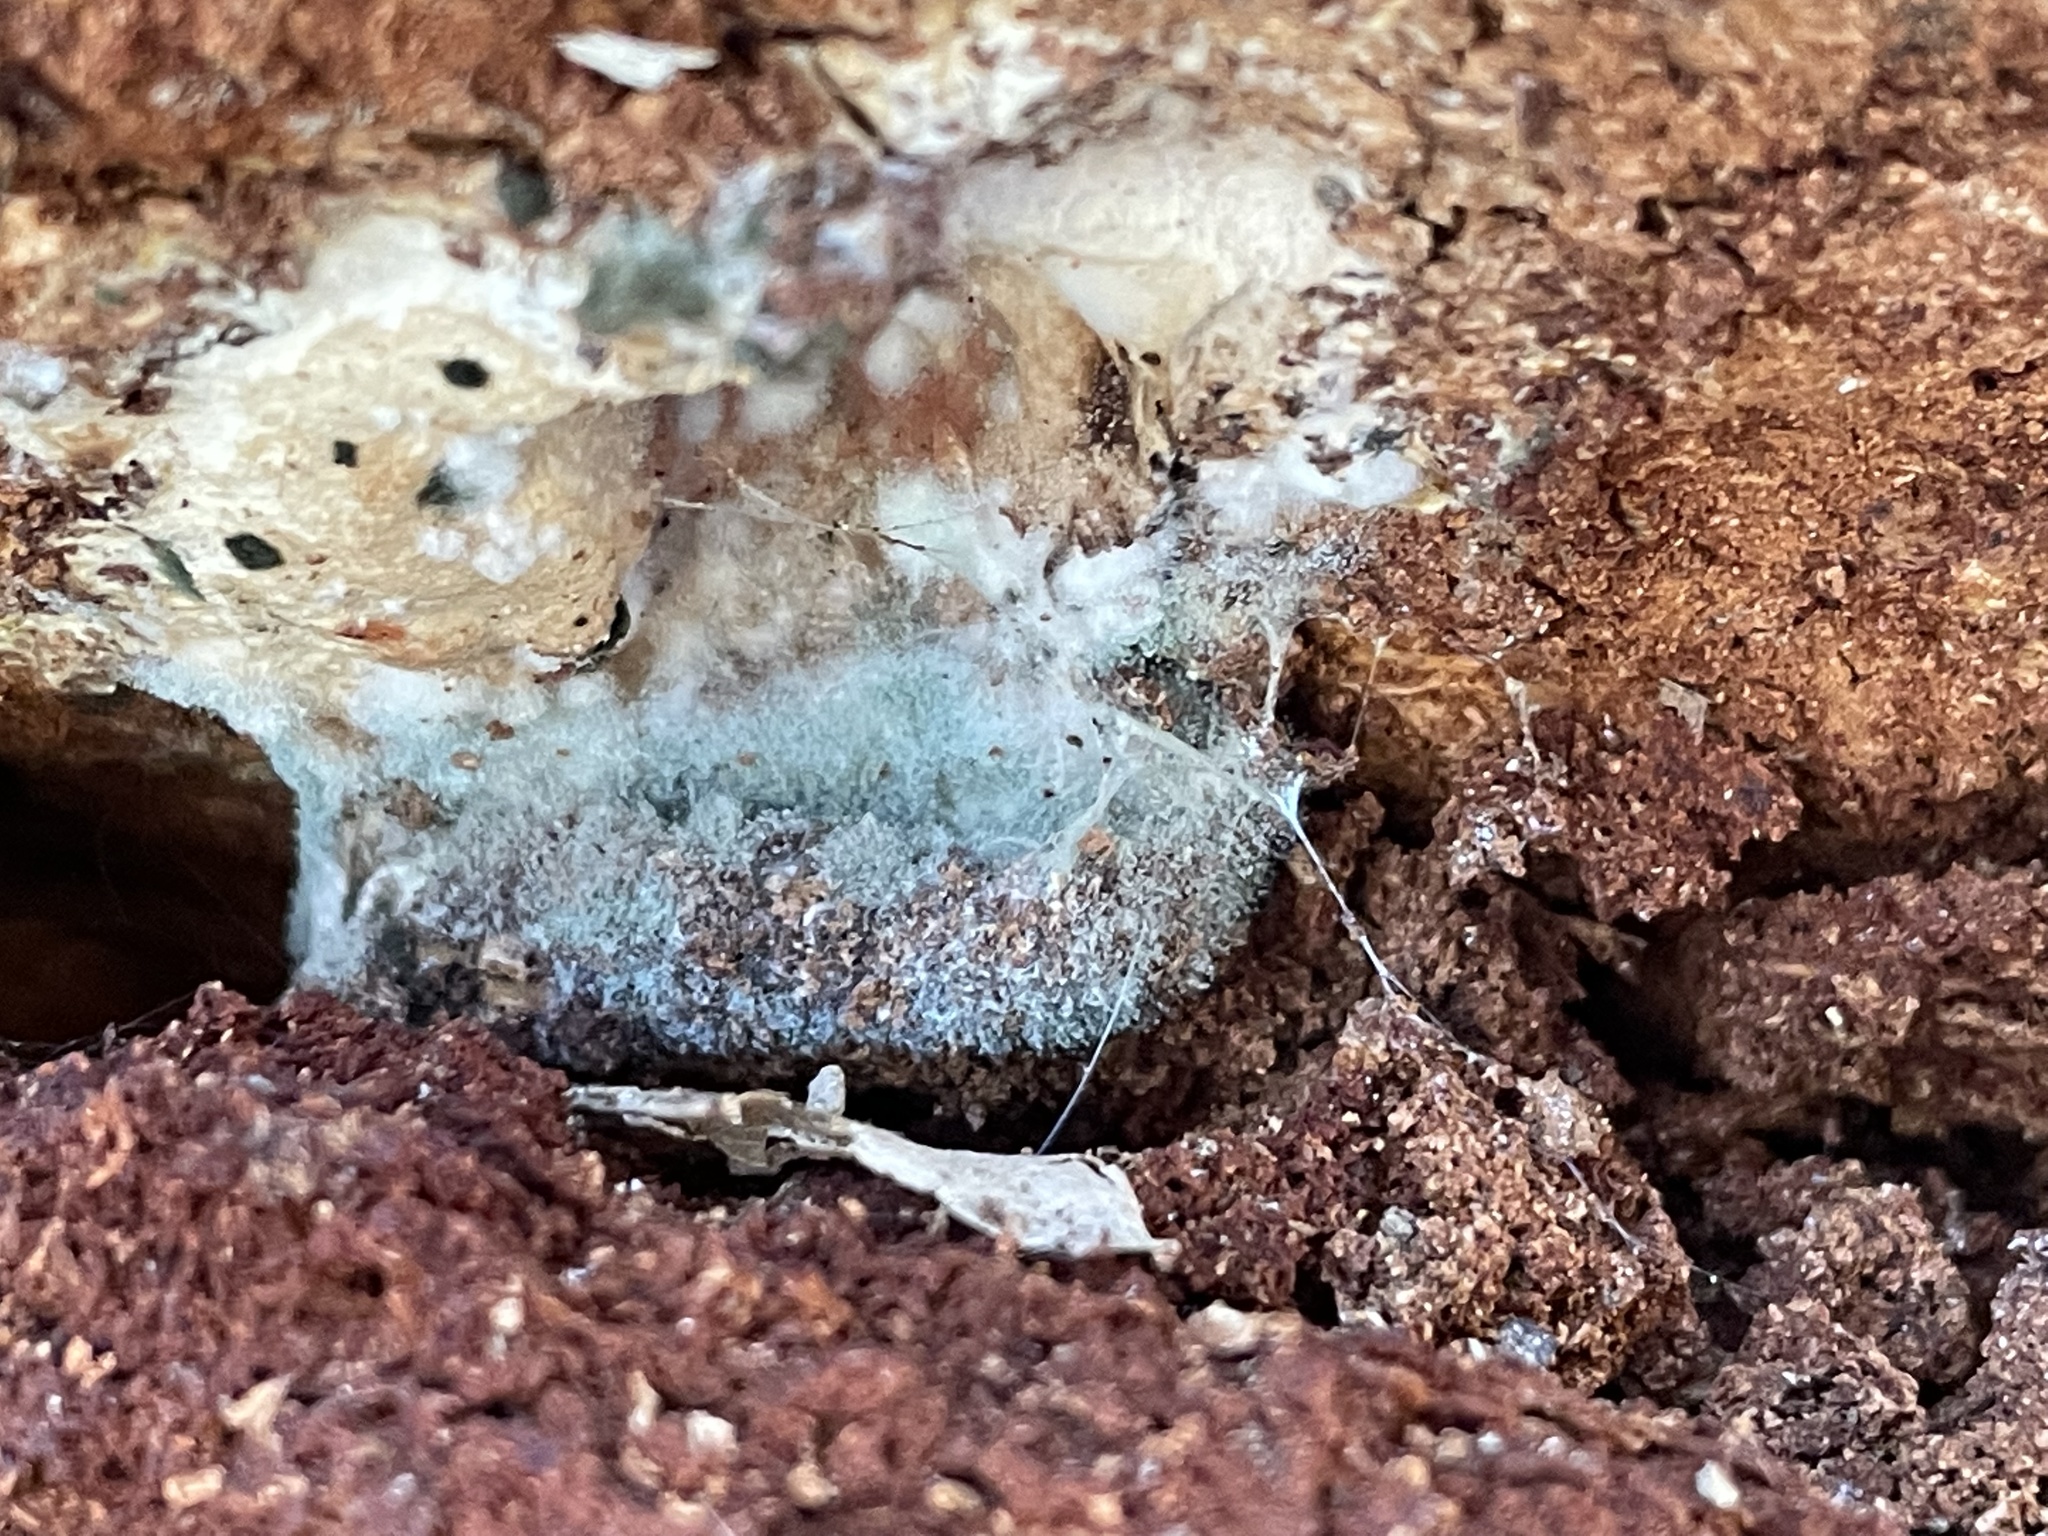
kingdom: Fungi
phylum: Basidiomycota
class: Agaricomycetes
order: Atheliales
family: Atheliaceae
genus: Byssocorticium
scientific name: Byssocorticium atrovirens
